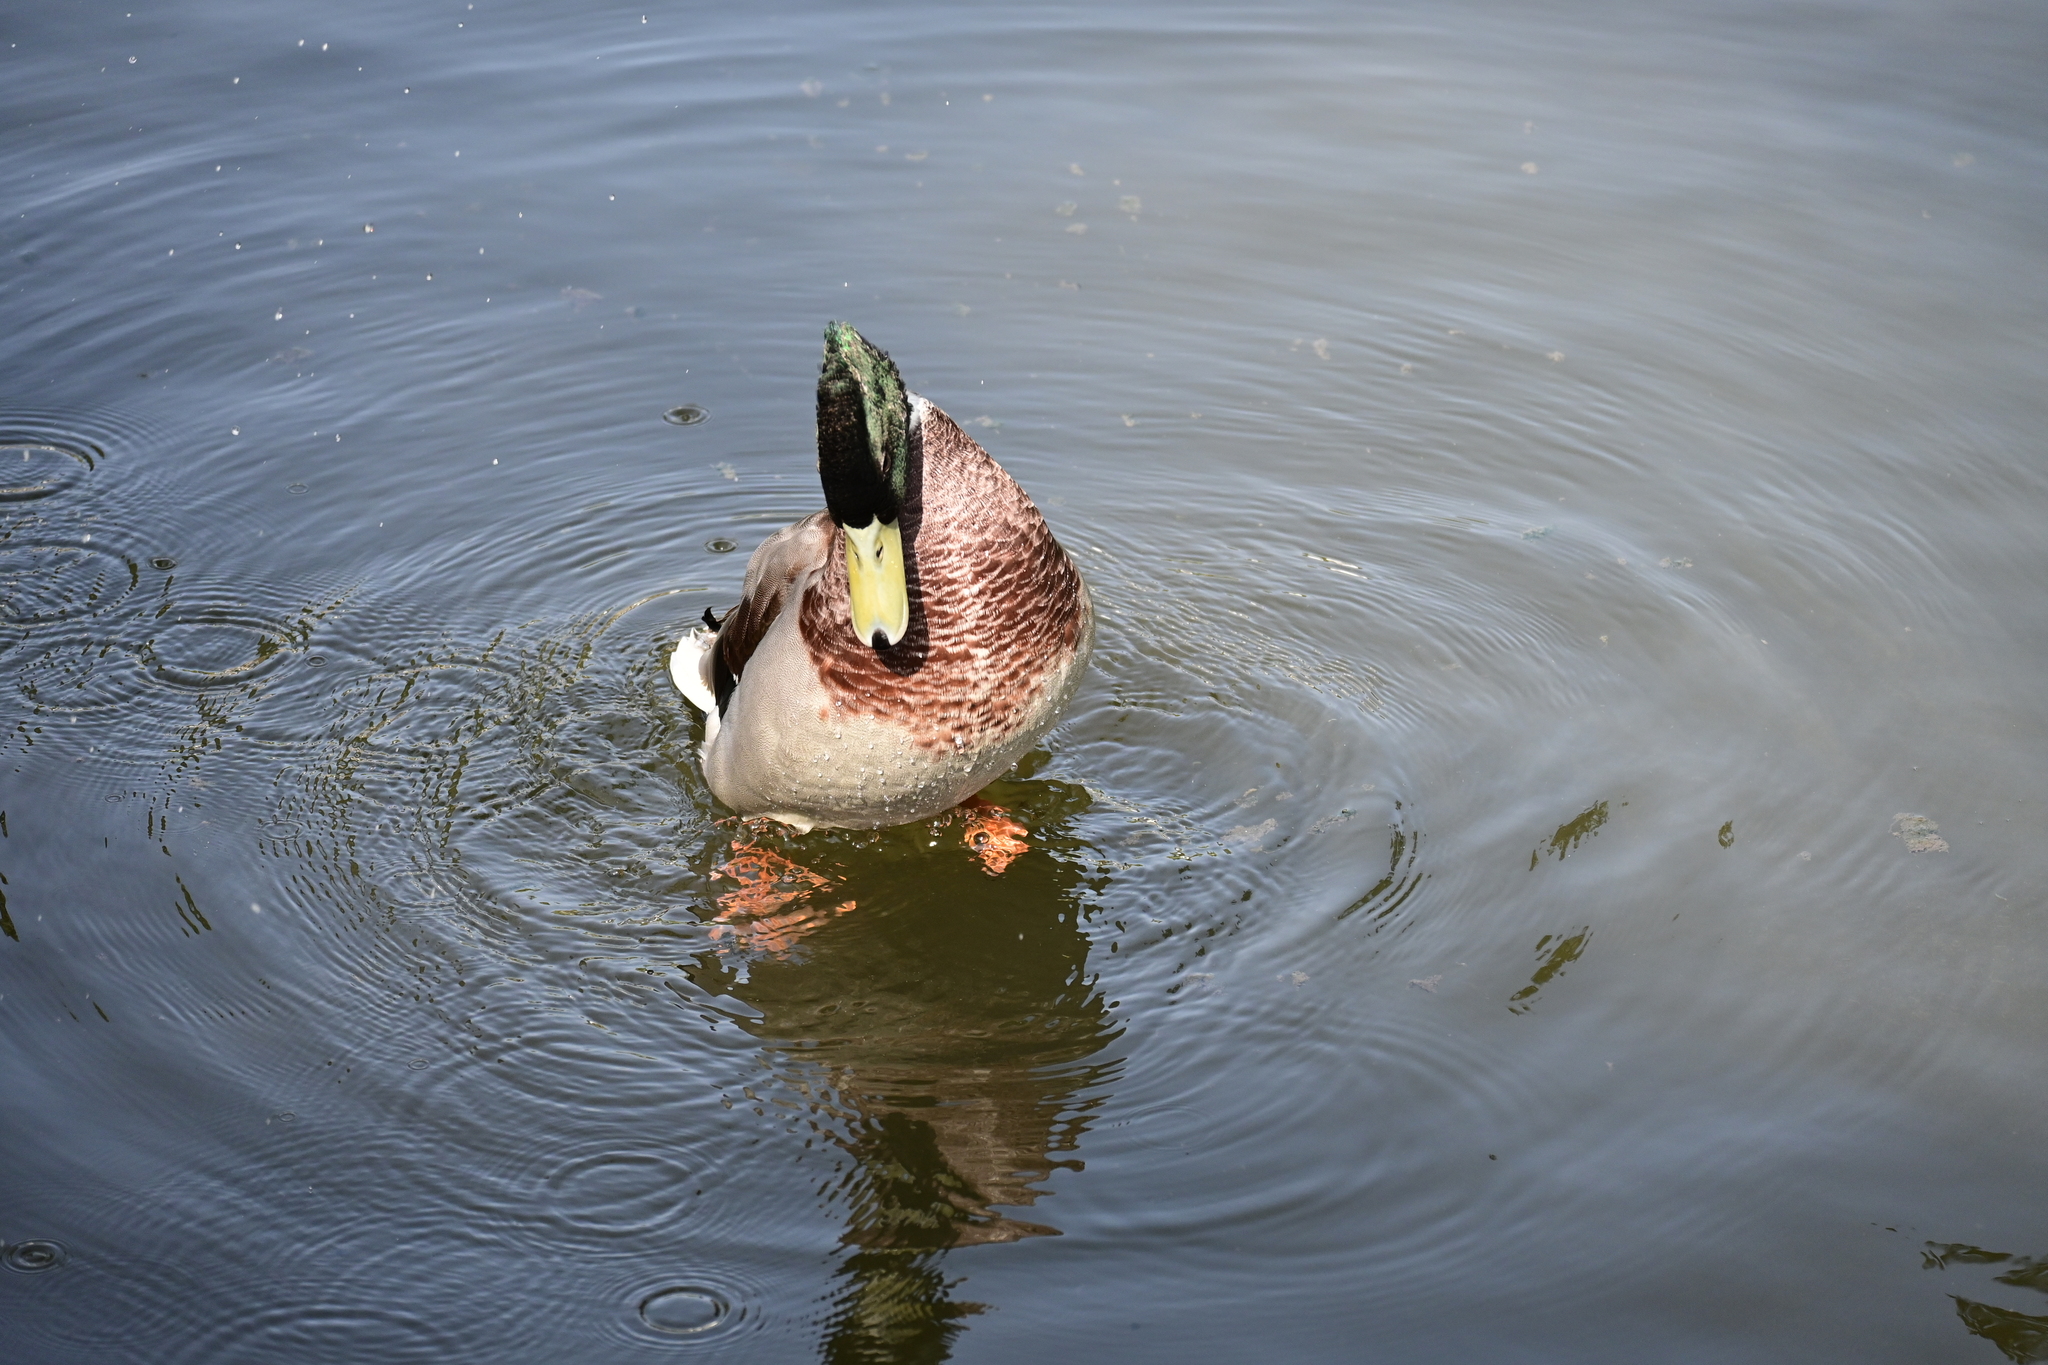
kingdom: Animalia
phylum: Chordata
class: Aves
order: Anseriformes
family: Anatidae
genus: Anas
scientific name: Anas platyrhynchos
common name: Mallard
